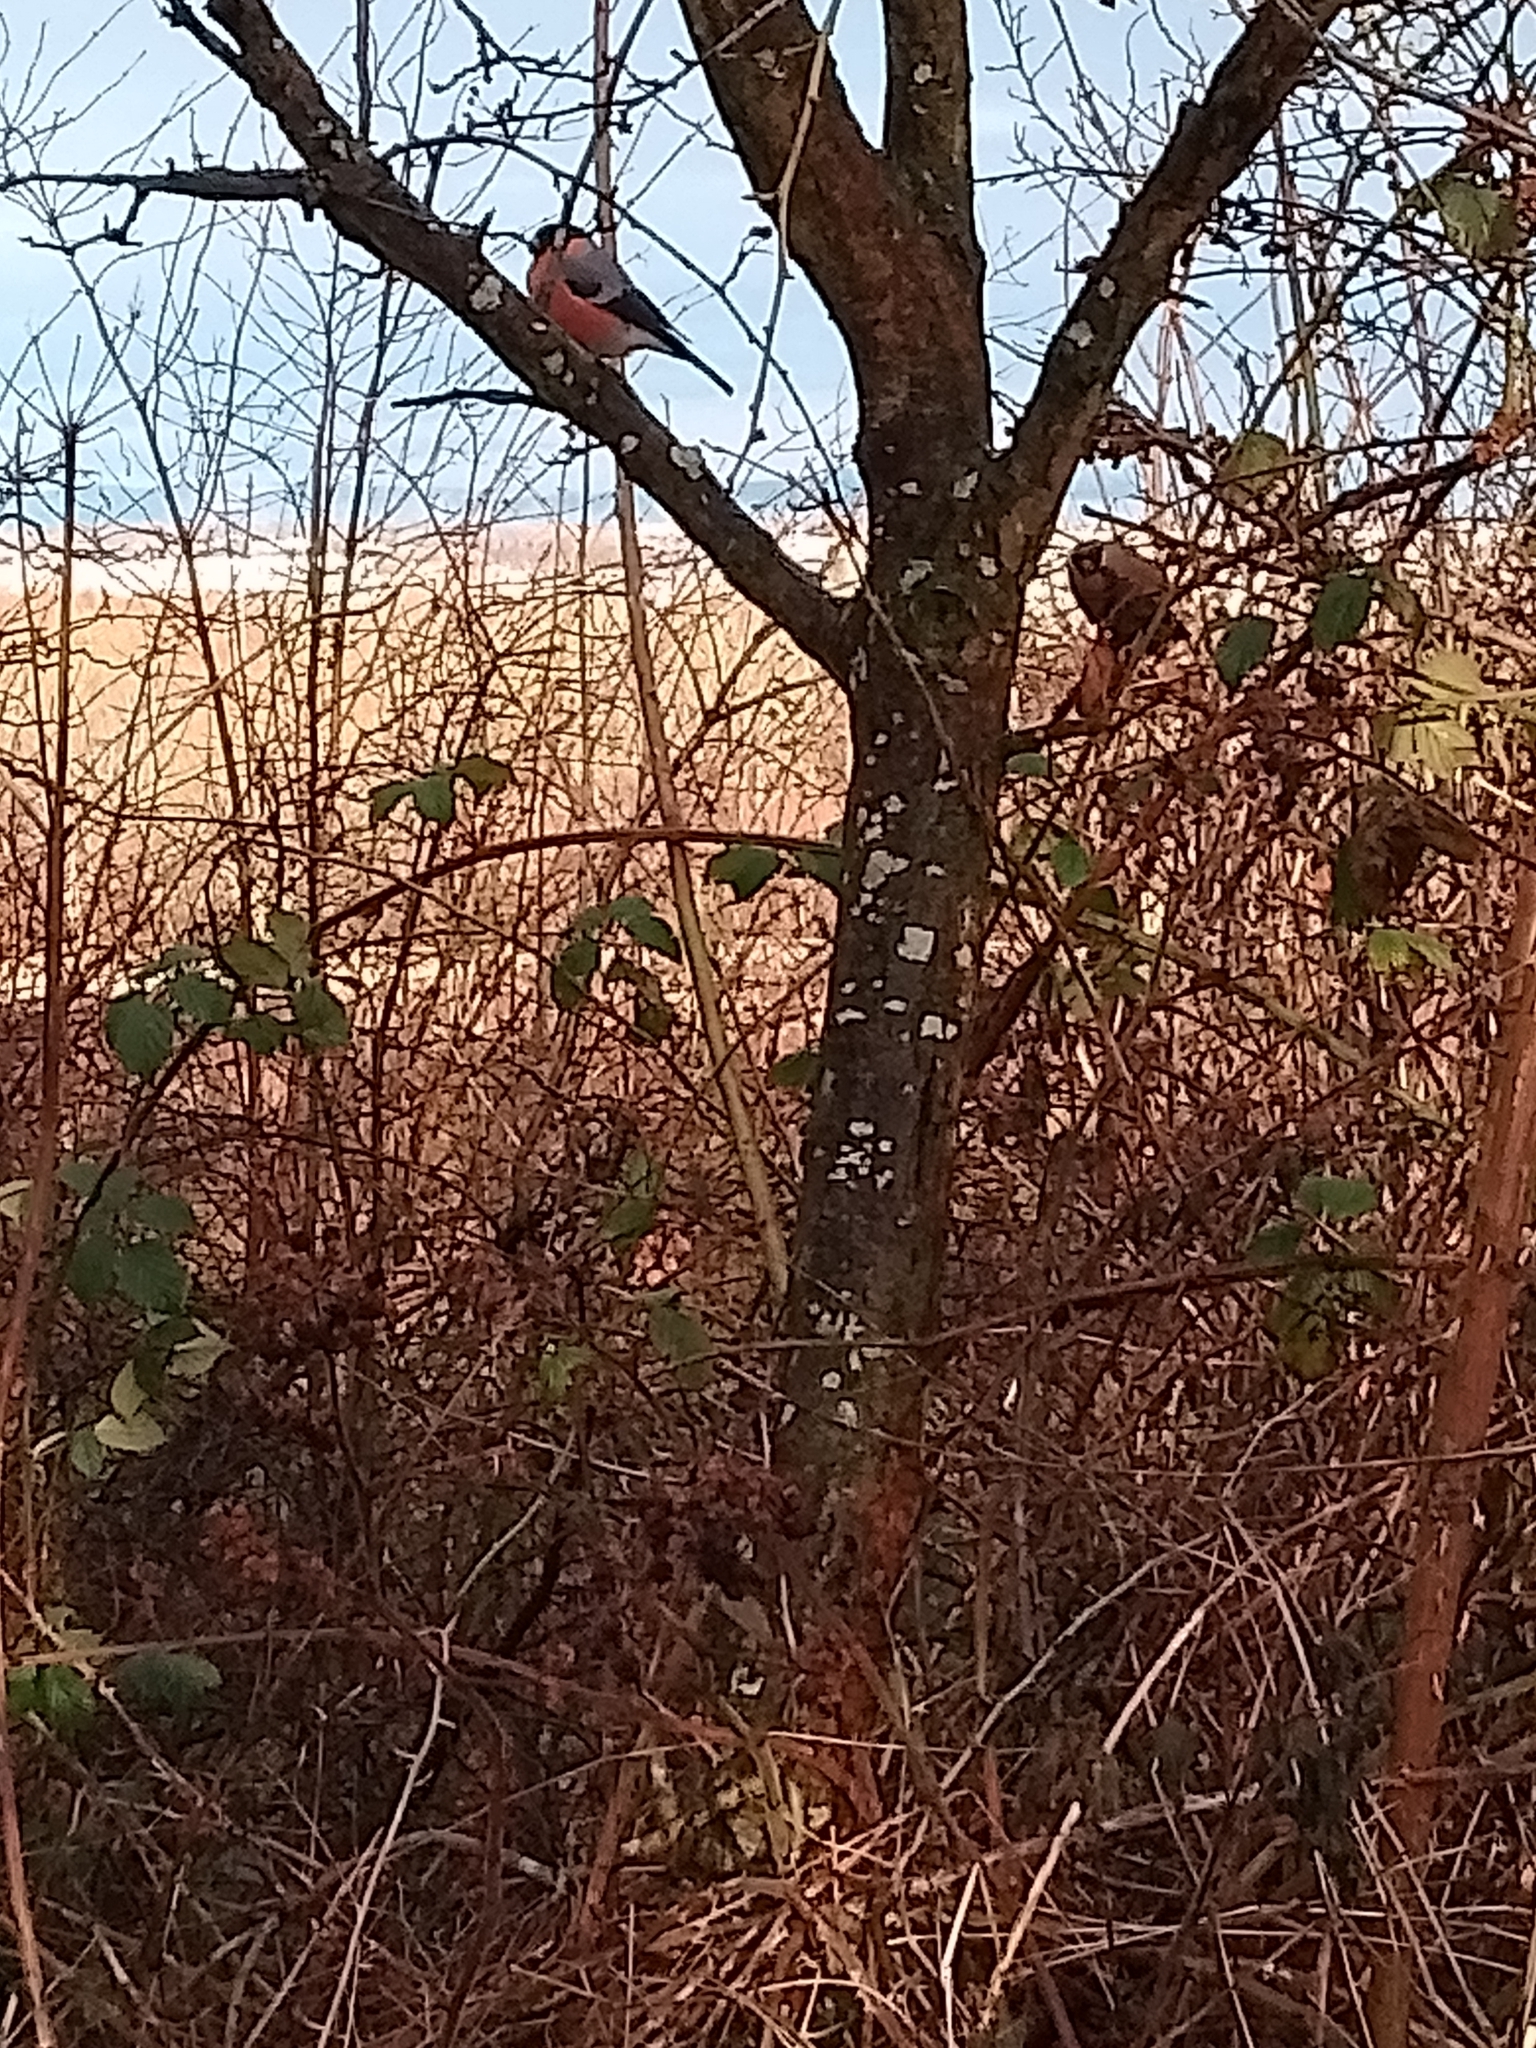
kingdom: Animalia
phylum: Chordata
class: Aves
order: Passeriformes
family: Fringillidae
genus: Pyrrhula
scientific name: Pyrrhula pyrrhula
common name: Eurasian bullfinch
